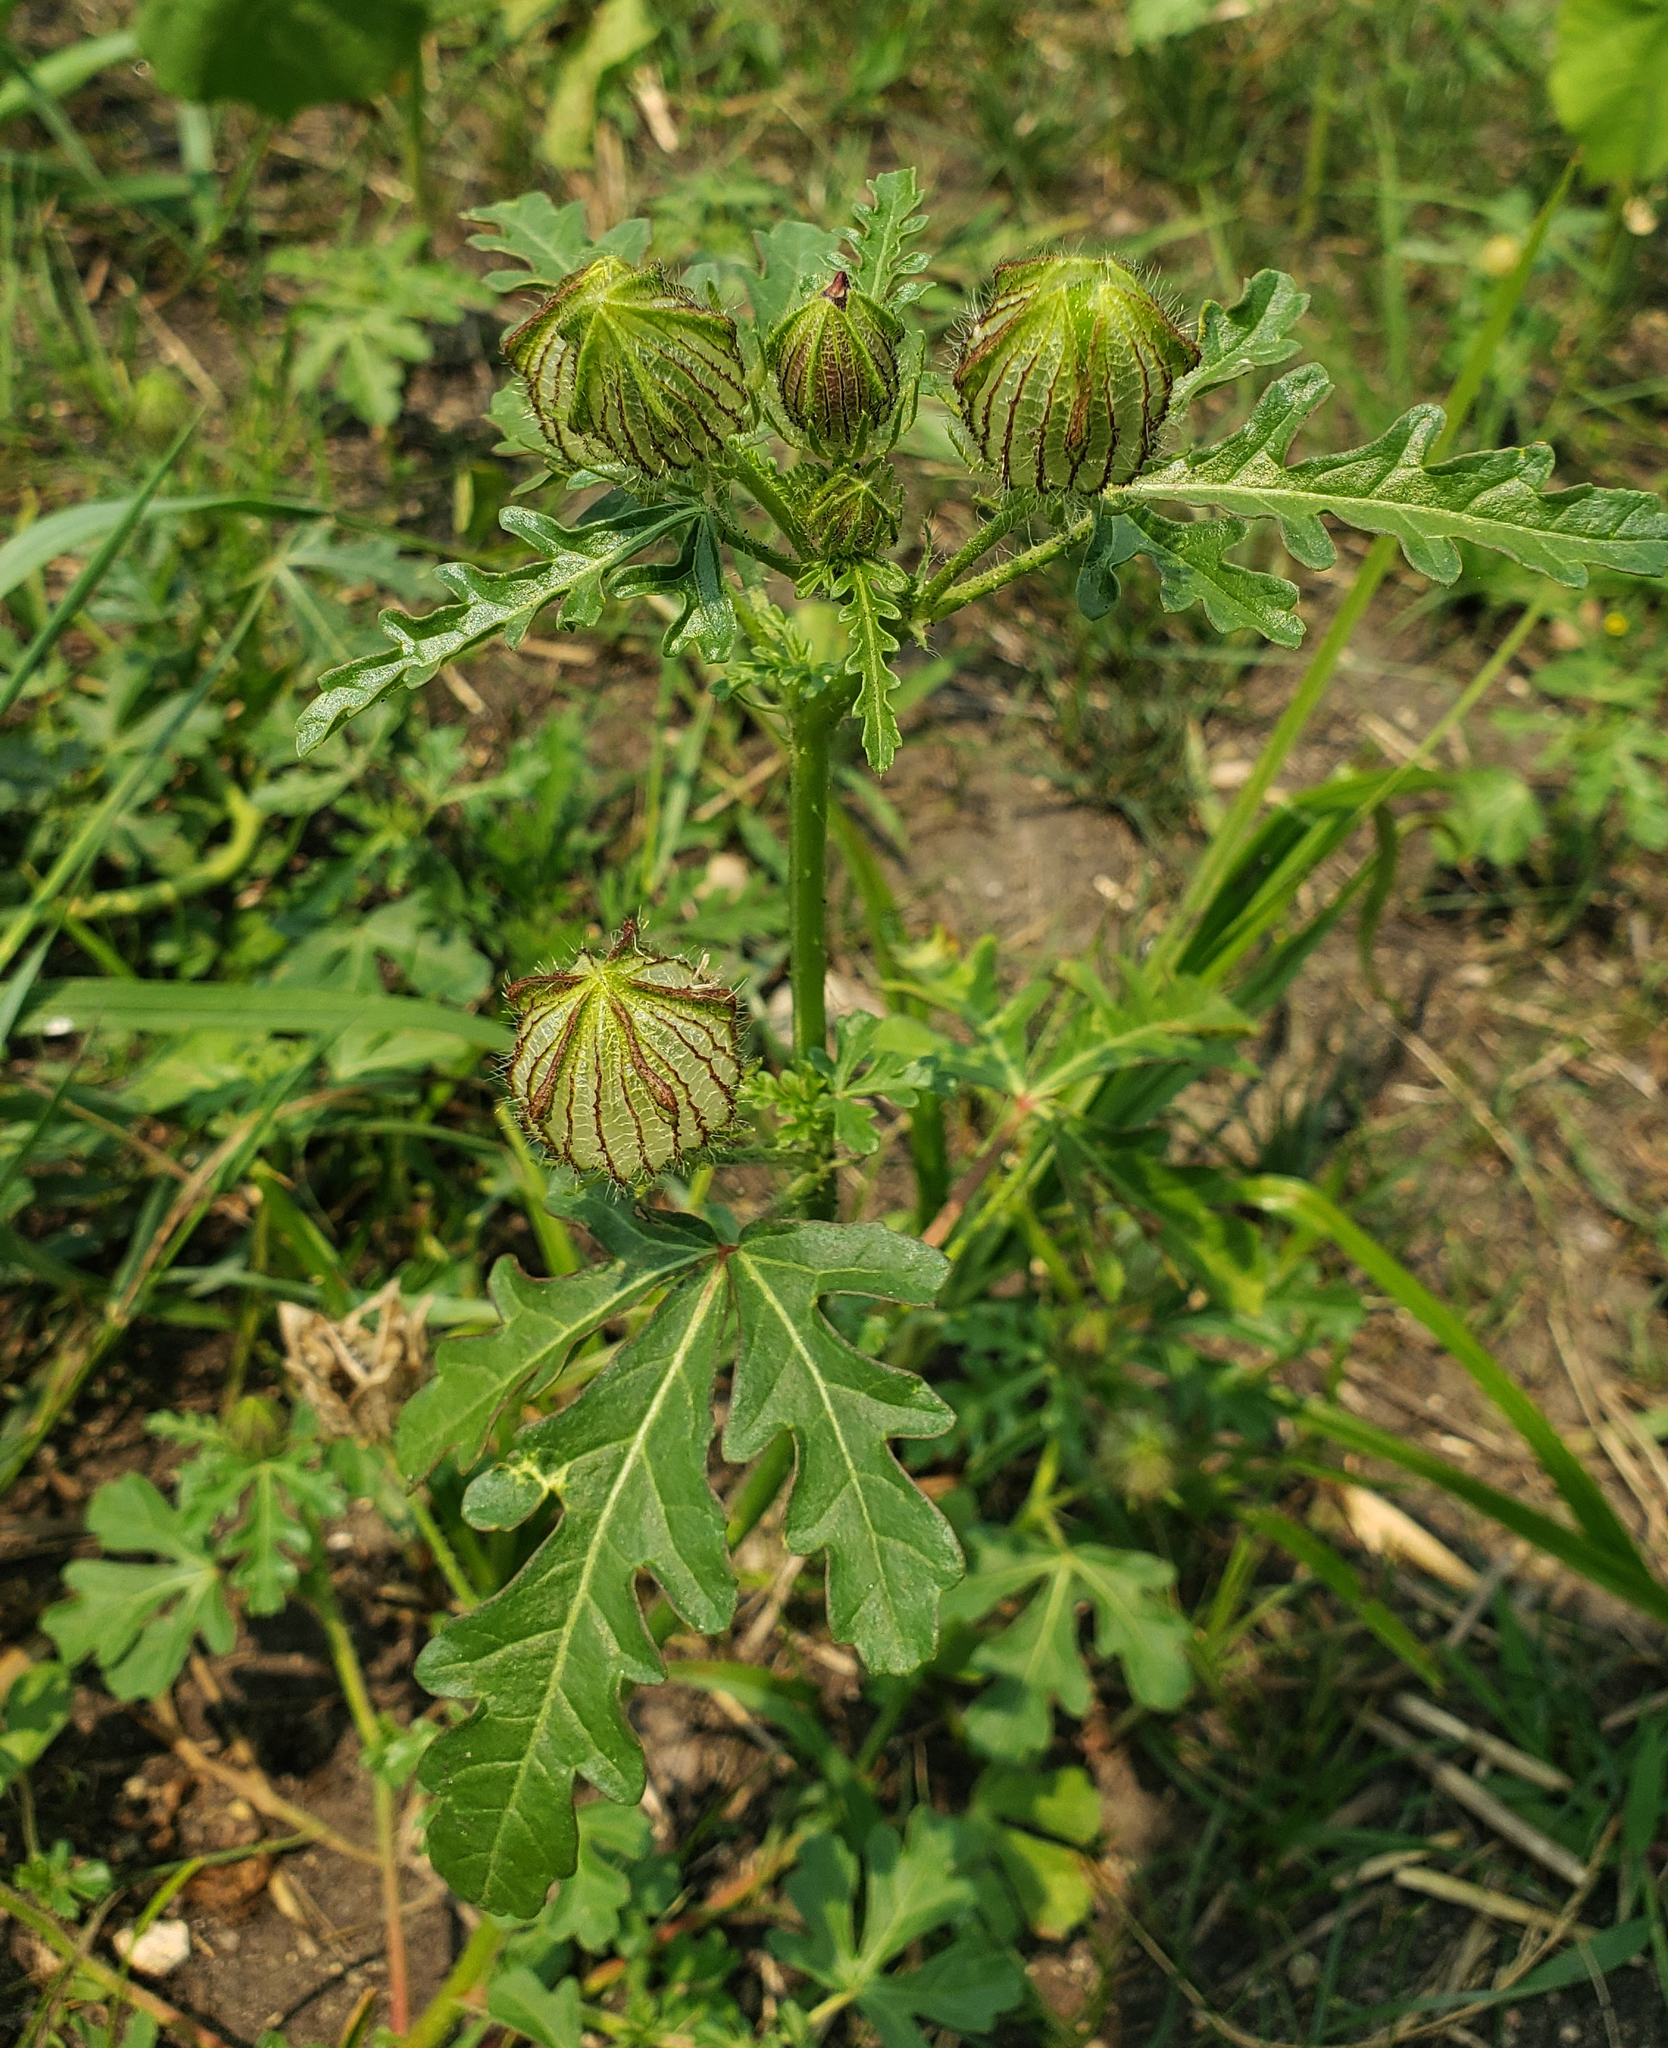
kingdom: Plantae
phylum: Tracheophyta
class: Magnoliopsida
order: Malvales
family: Malvaceae
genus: Hibiscus
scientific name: Hibiscus trionum
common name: Bladder ketmia
